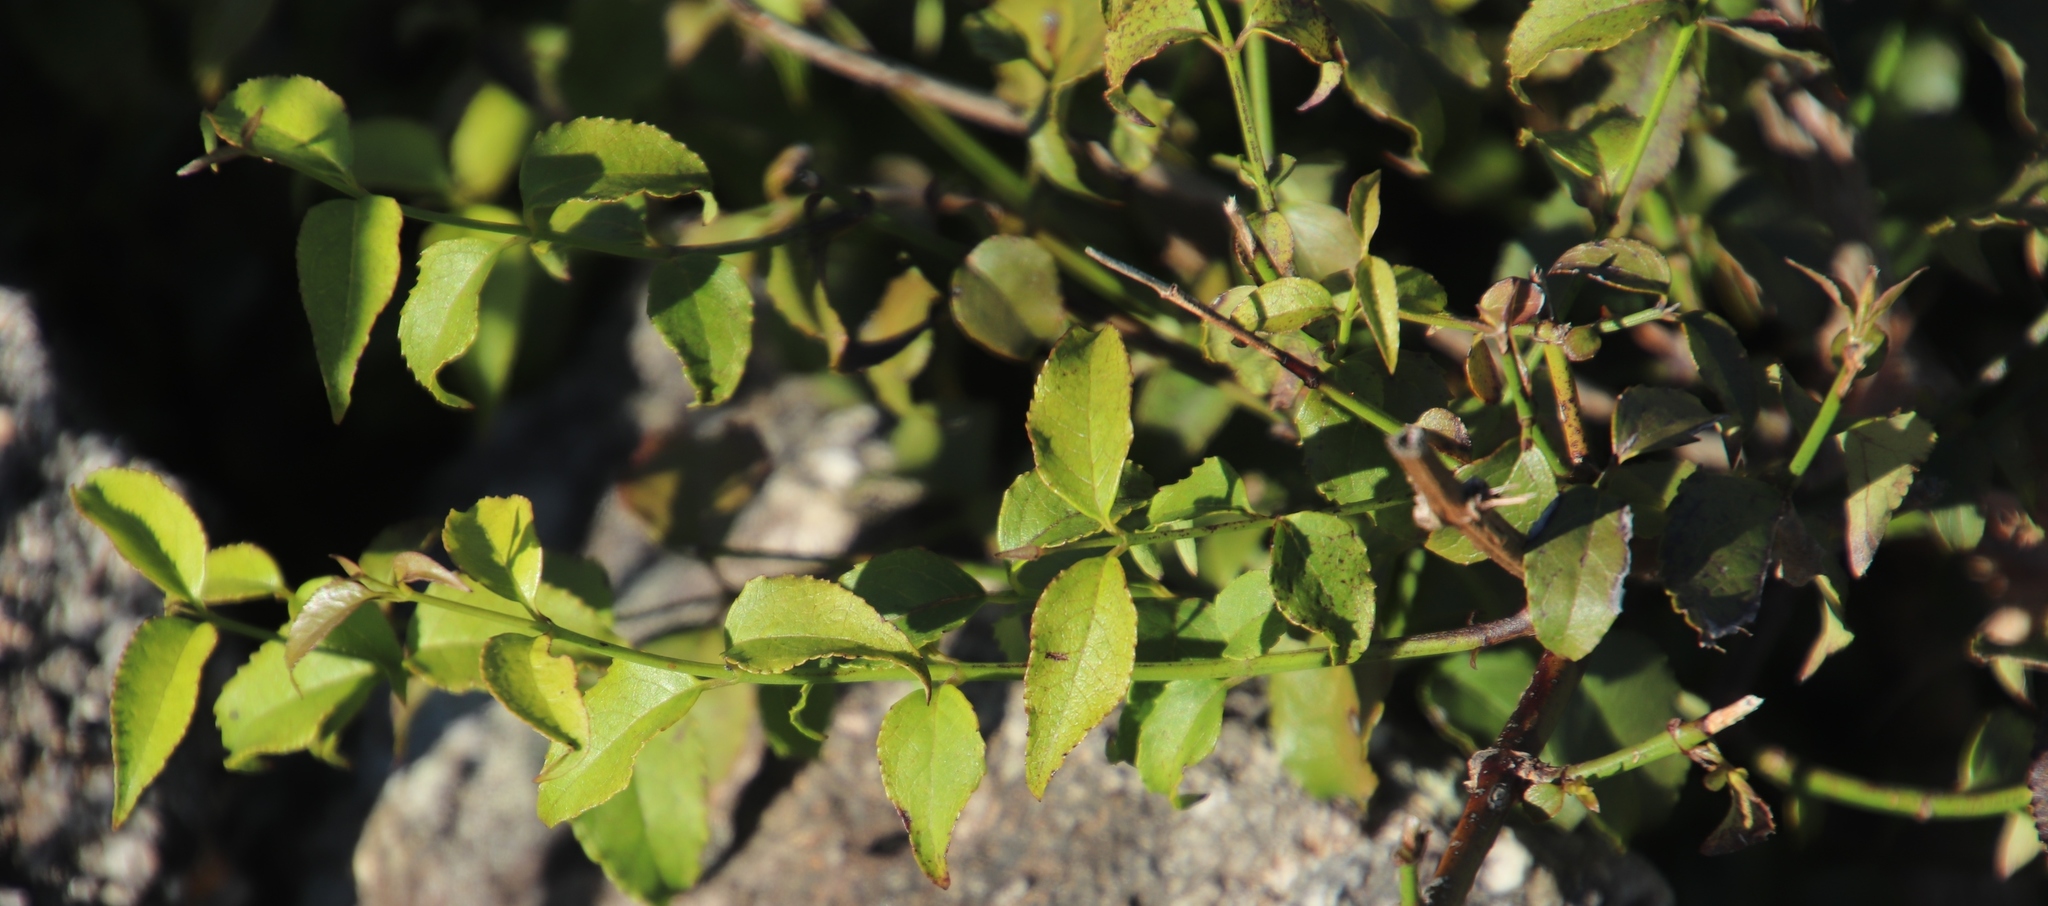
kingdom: Plantae
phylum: Tracheophyta
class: Magnoliopsida
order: Lamiales
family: Stilbaceae
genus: Halleria
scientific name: Halleria lucida
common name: Tree fuschia
